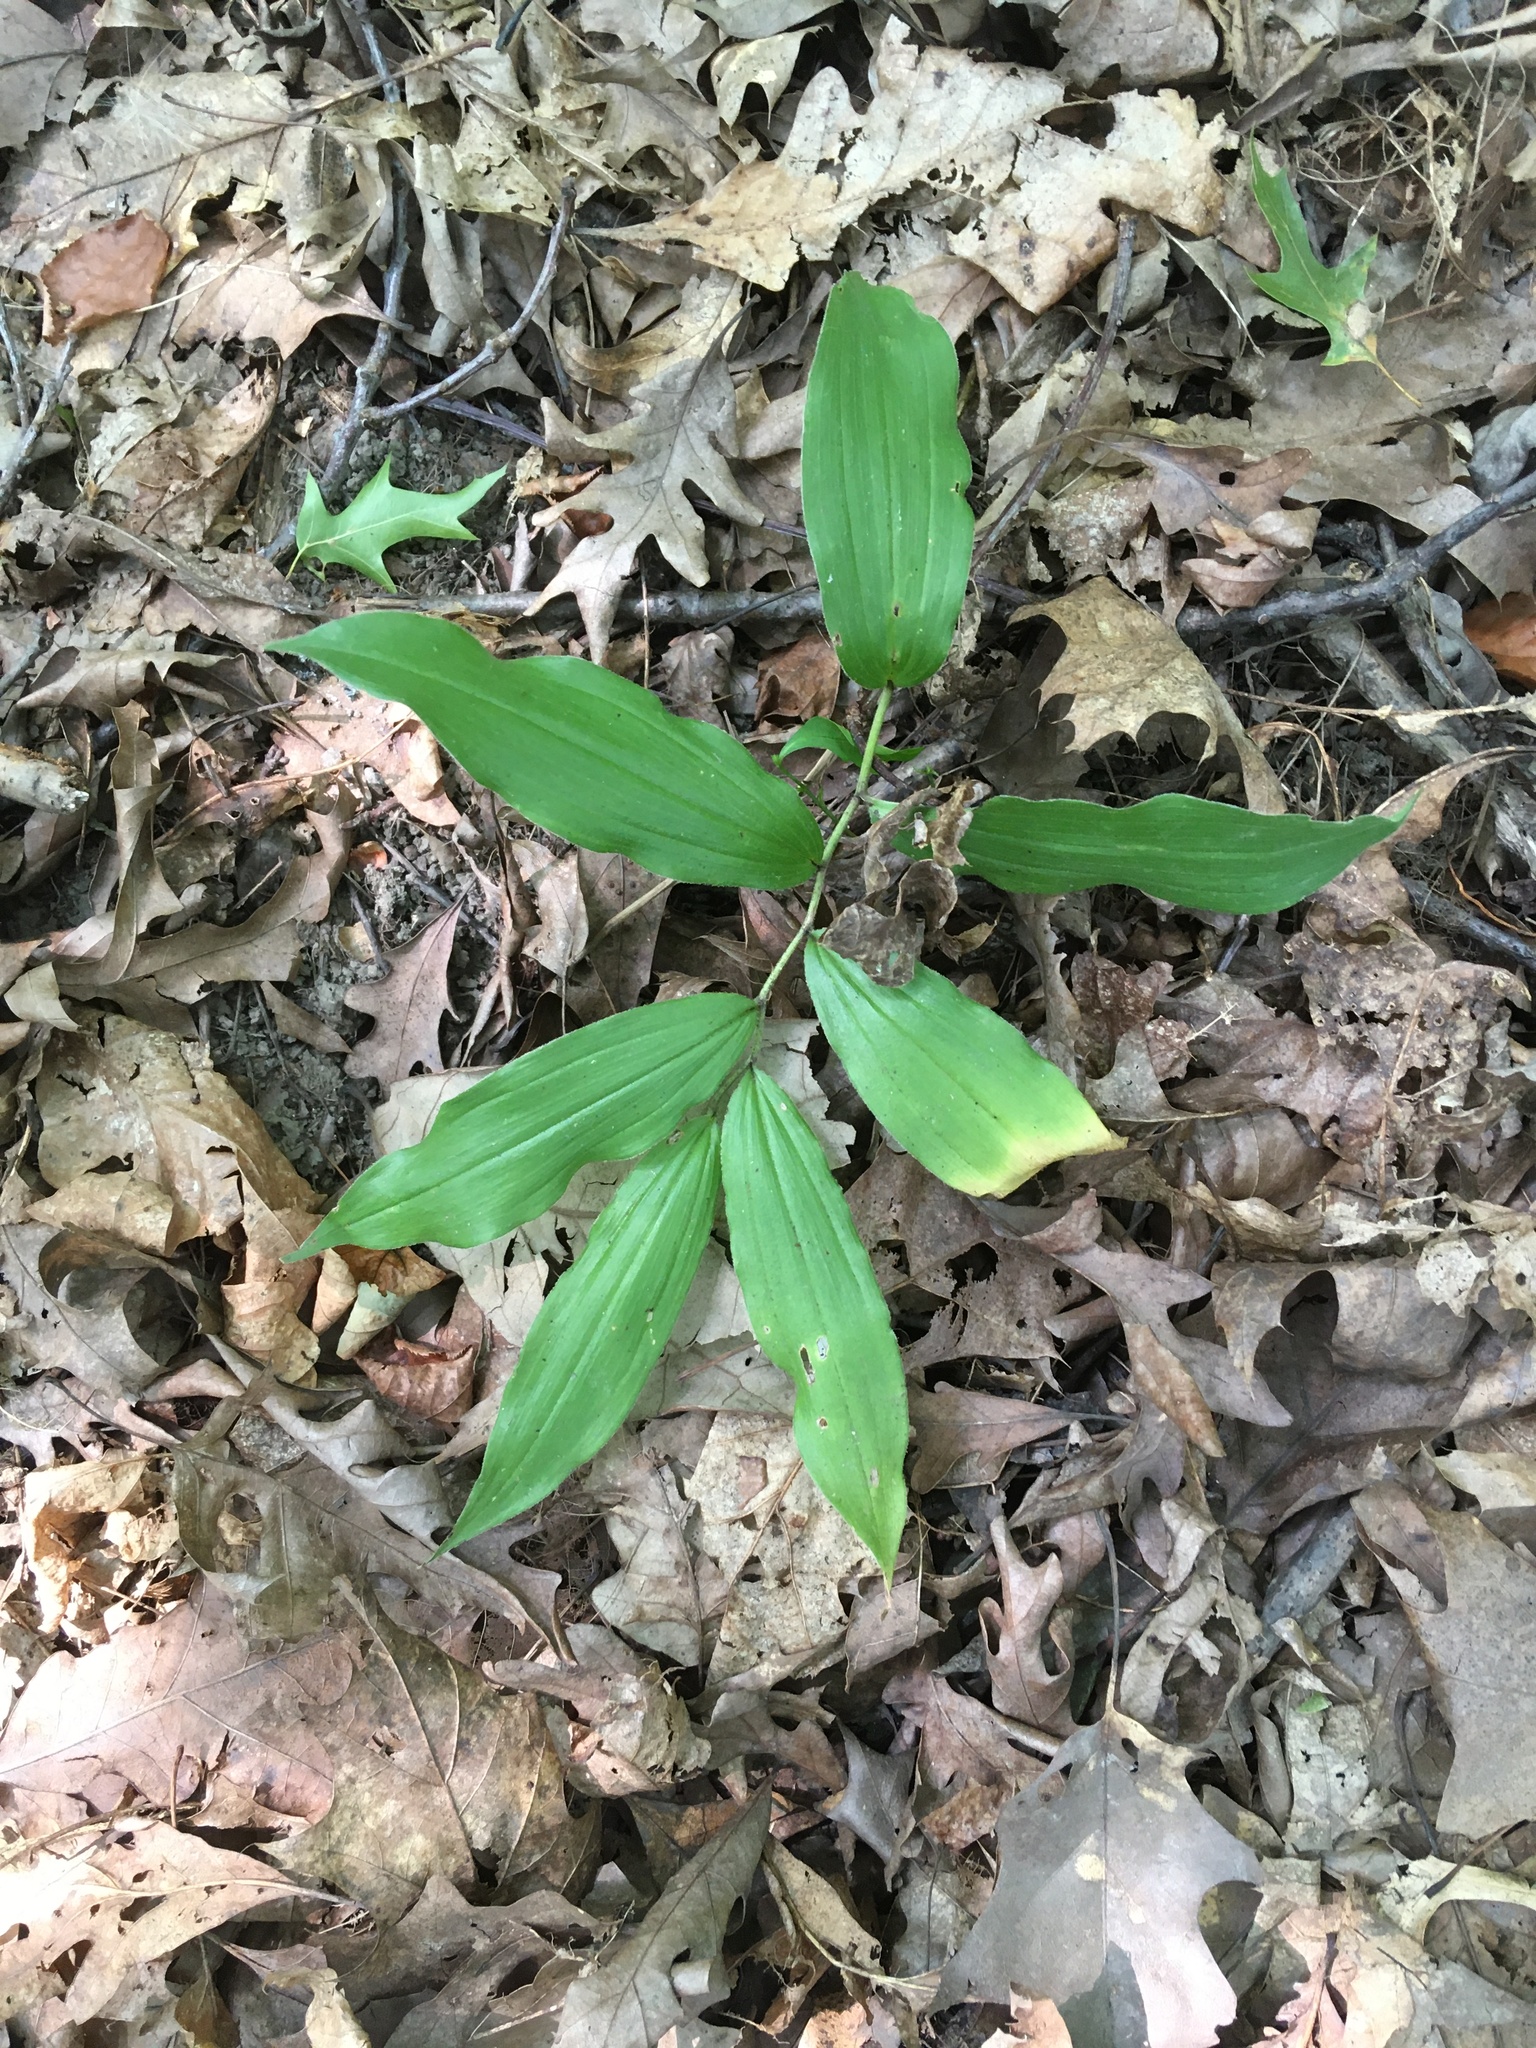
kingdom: Plantae
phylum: Tracheophyta
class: Liliopsida
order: Asparagales
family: Asparagaceae
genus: Maianthemum
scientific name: Maianthemum racemosum
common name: False spikenard
